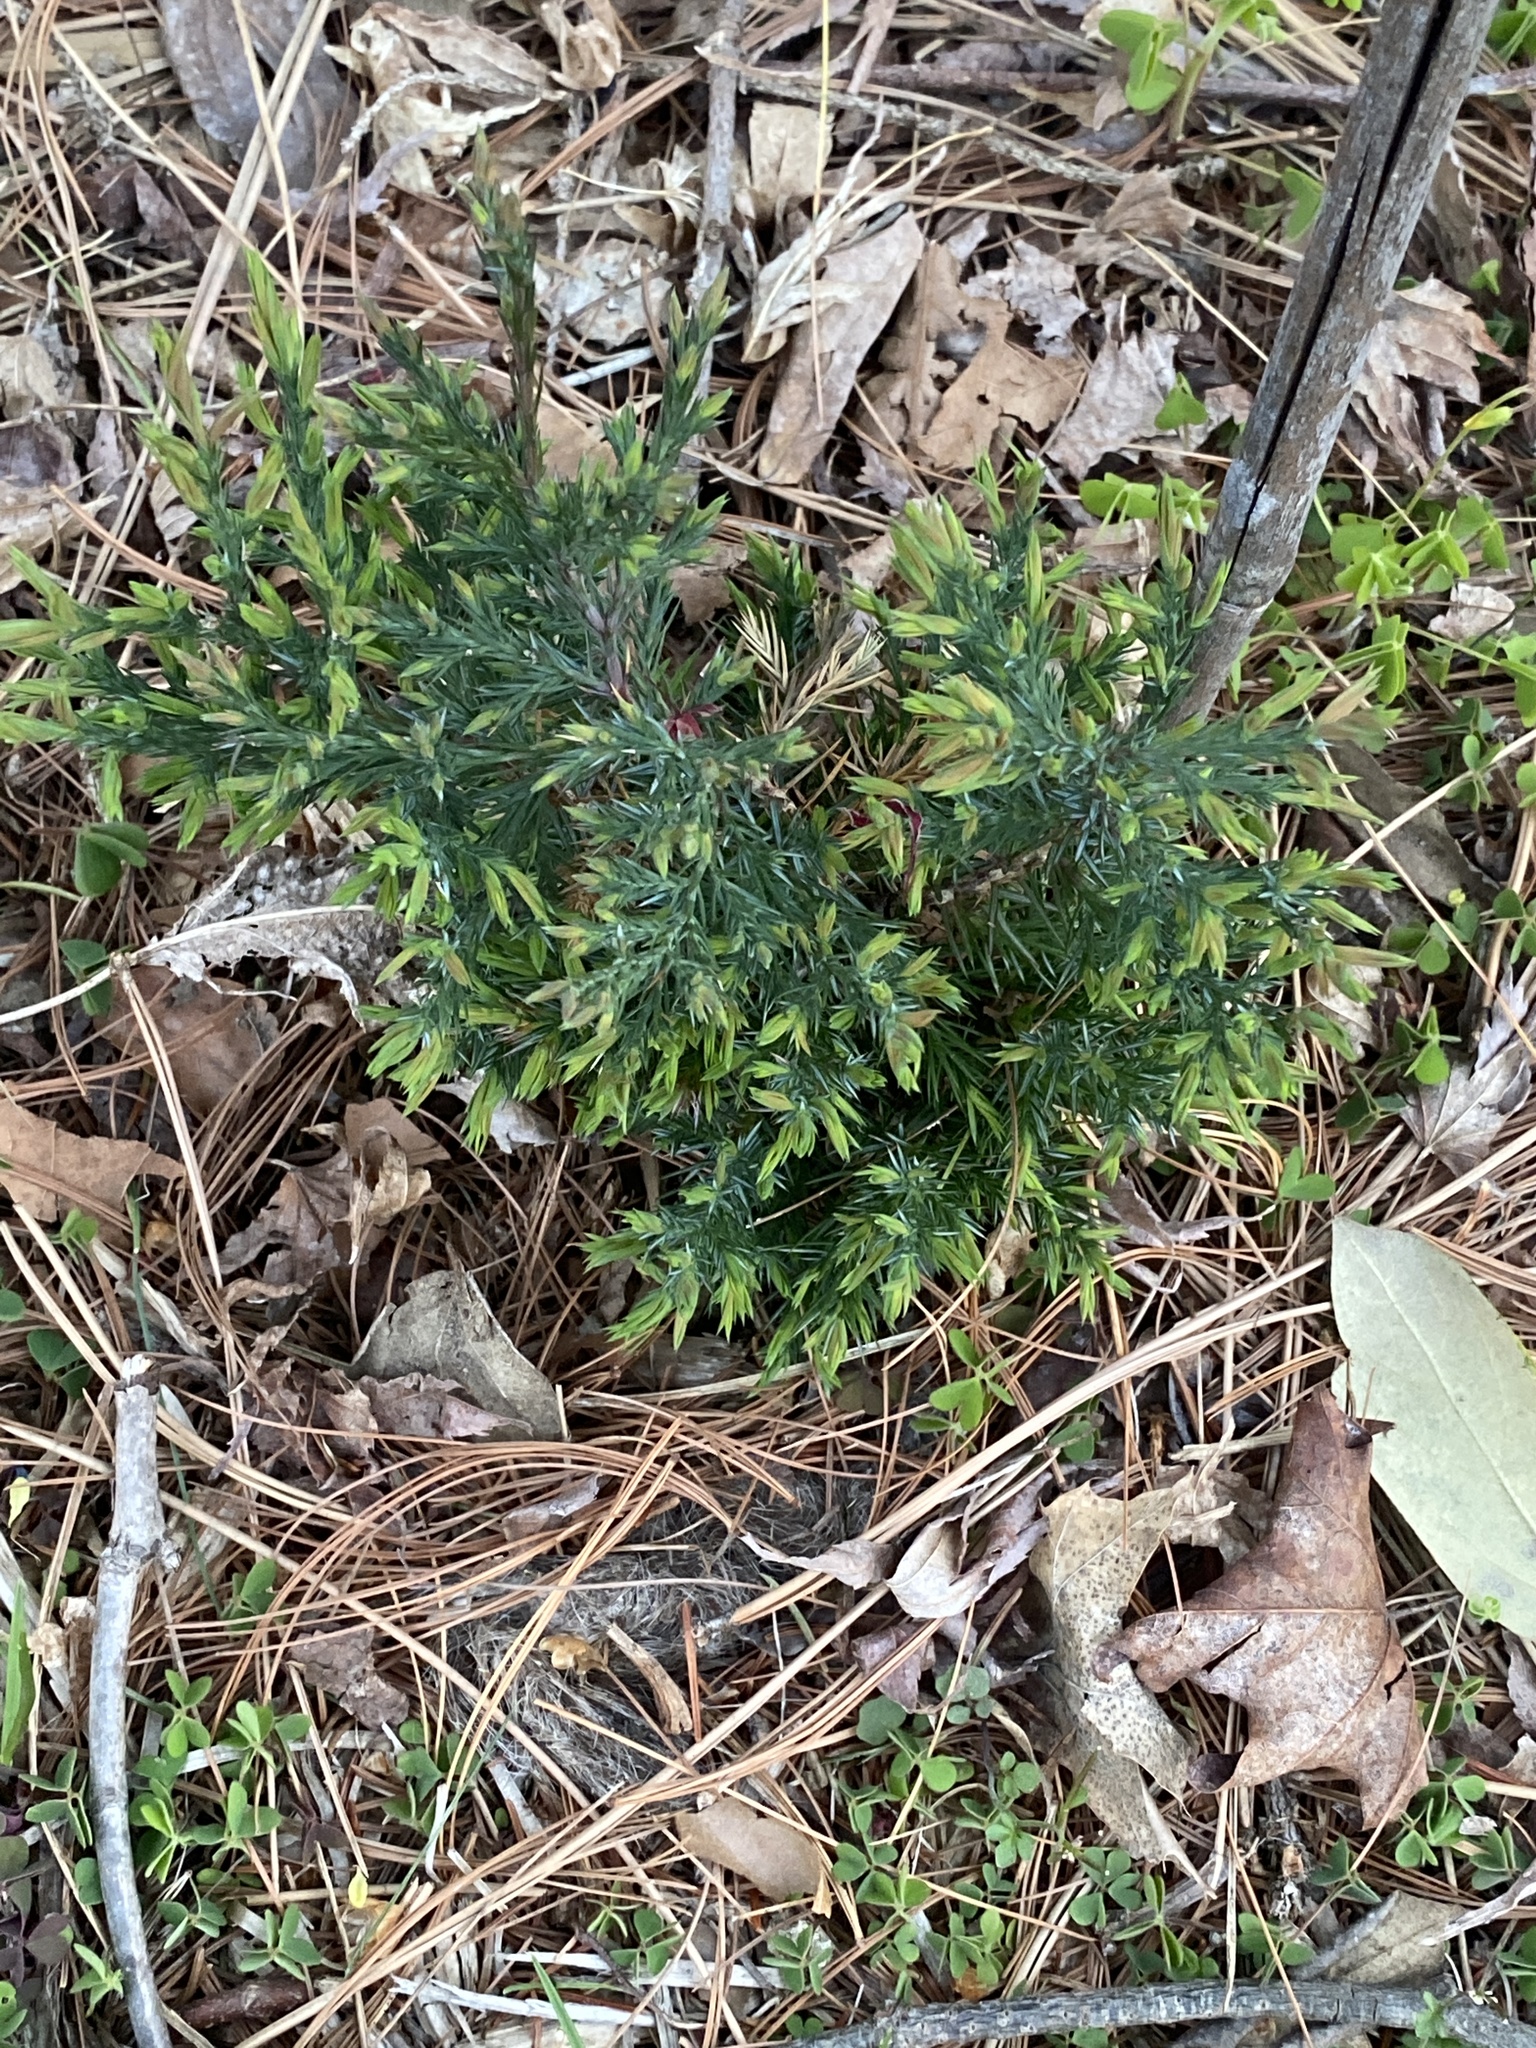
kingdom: Plantae
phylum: Tracheophyta
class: Pinopsida
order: Pinales
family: Cupressaceae
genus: Juniperus
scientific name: Juniperus virginiana
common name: Red juniper
